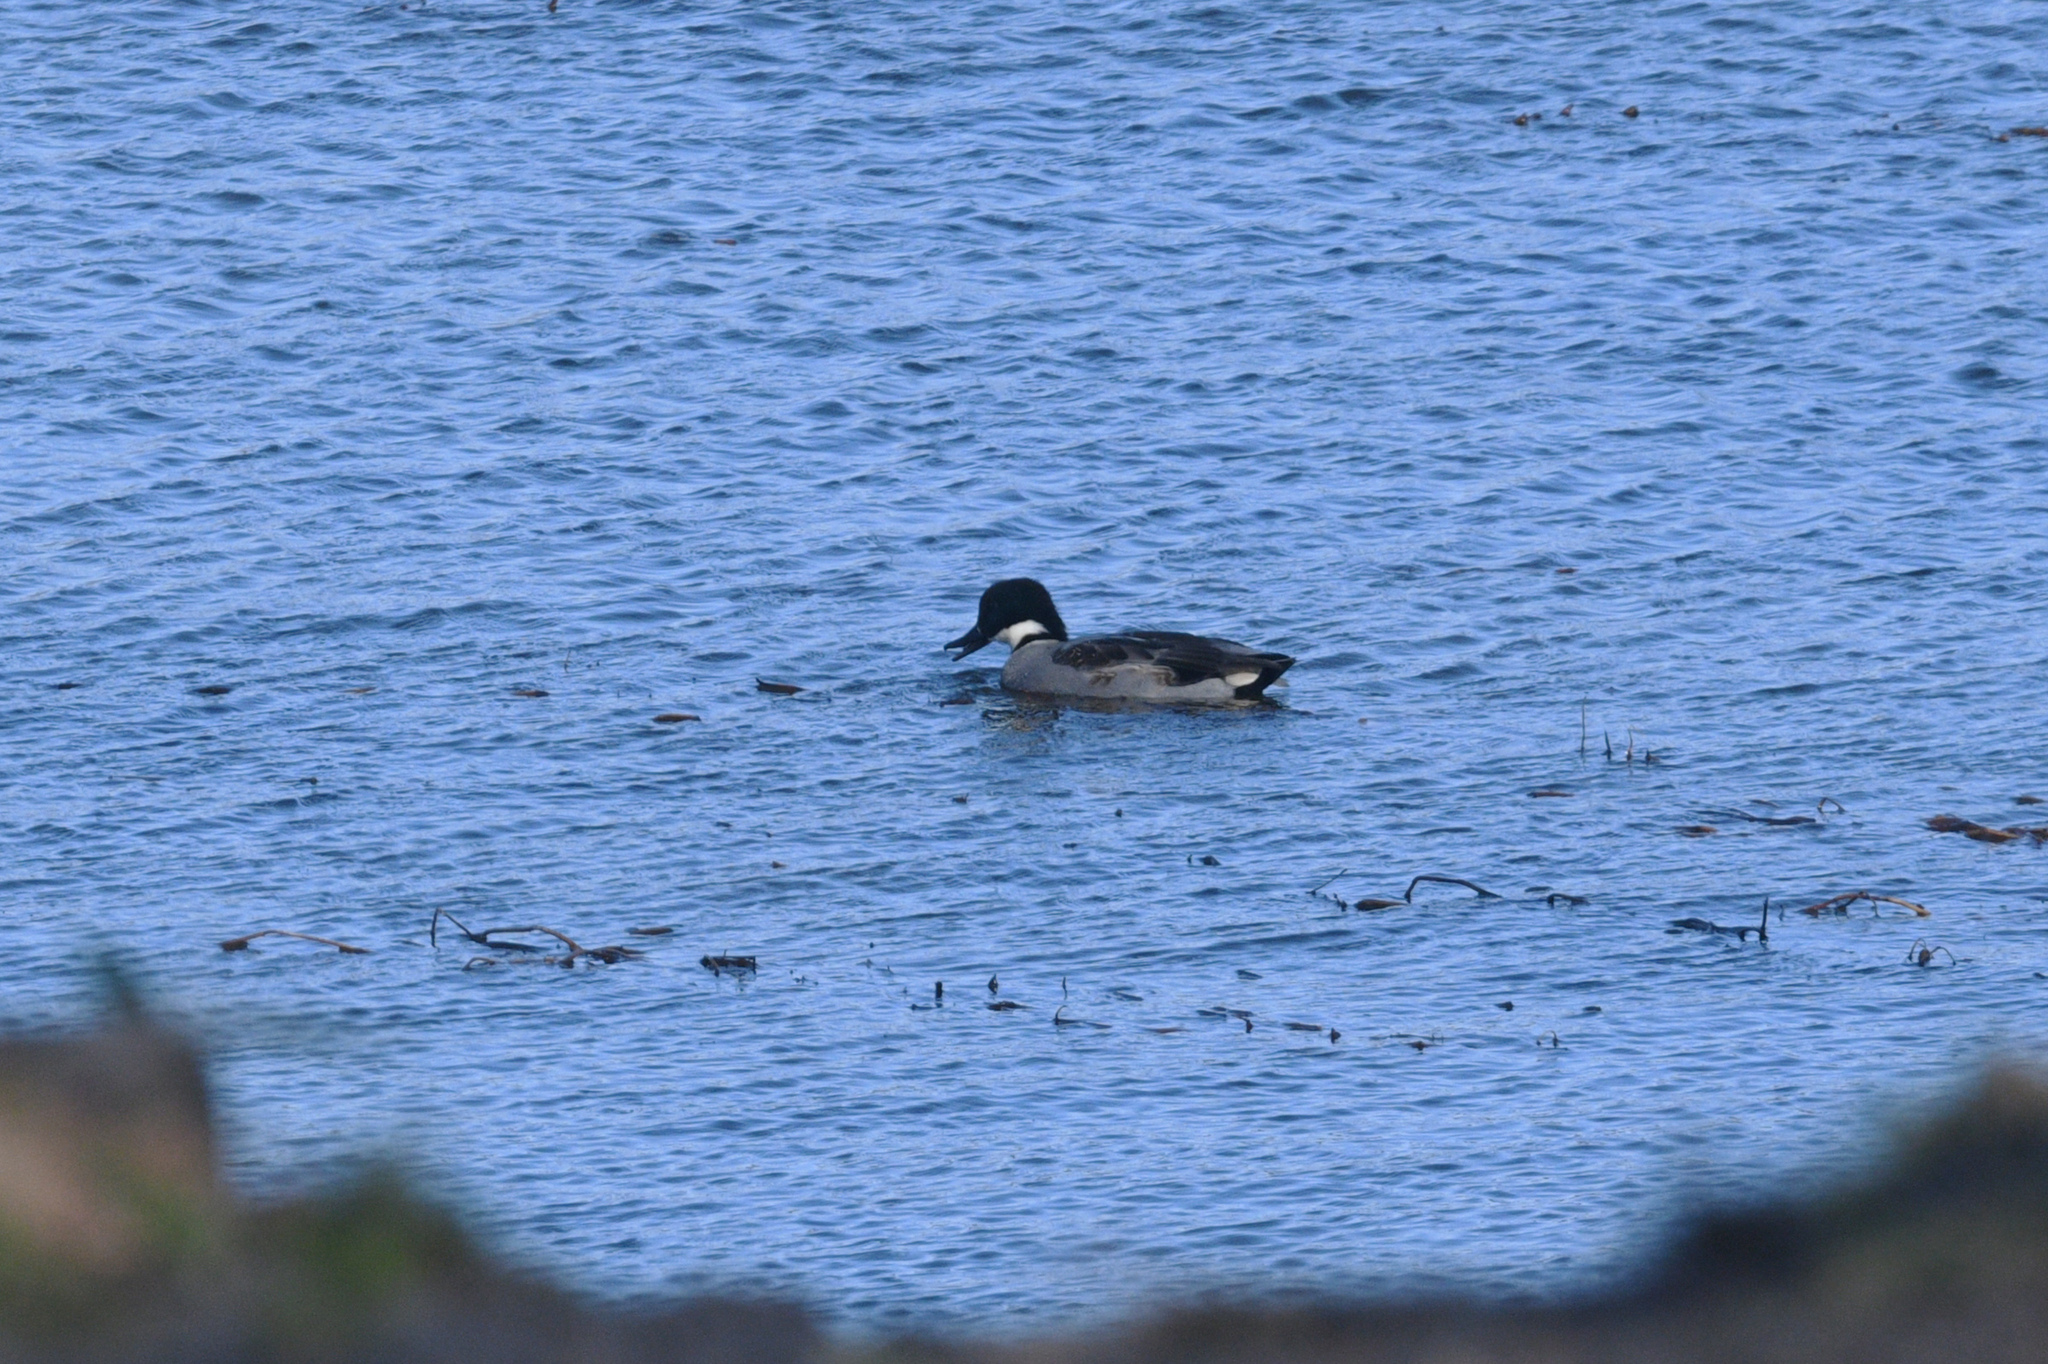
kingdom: Animalia
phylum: Chordata
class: Aves
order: Anseriformes
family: Anatidae
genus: Mareca
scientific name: Mareca falcata
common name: Falcated duck
